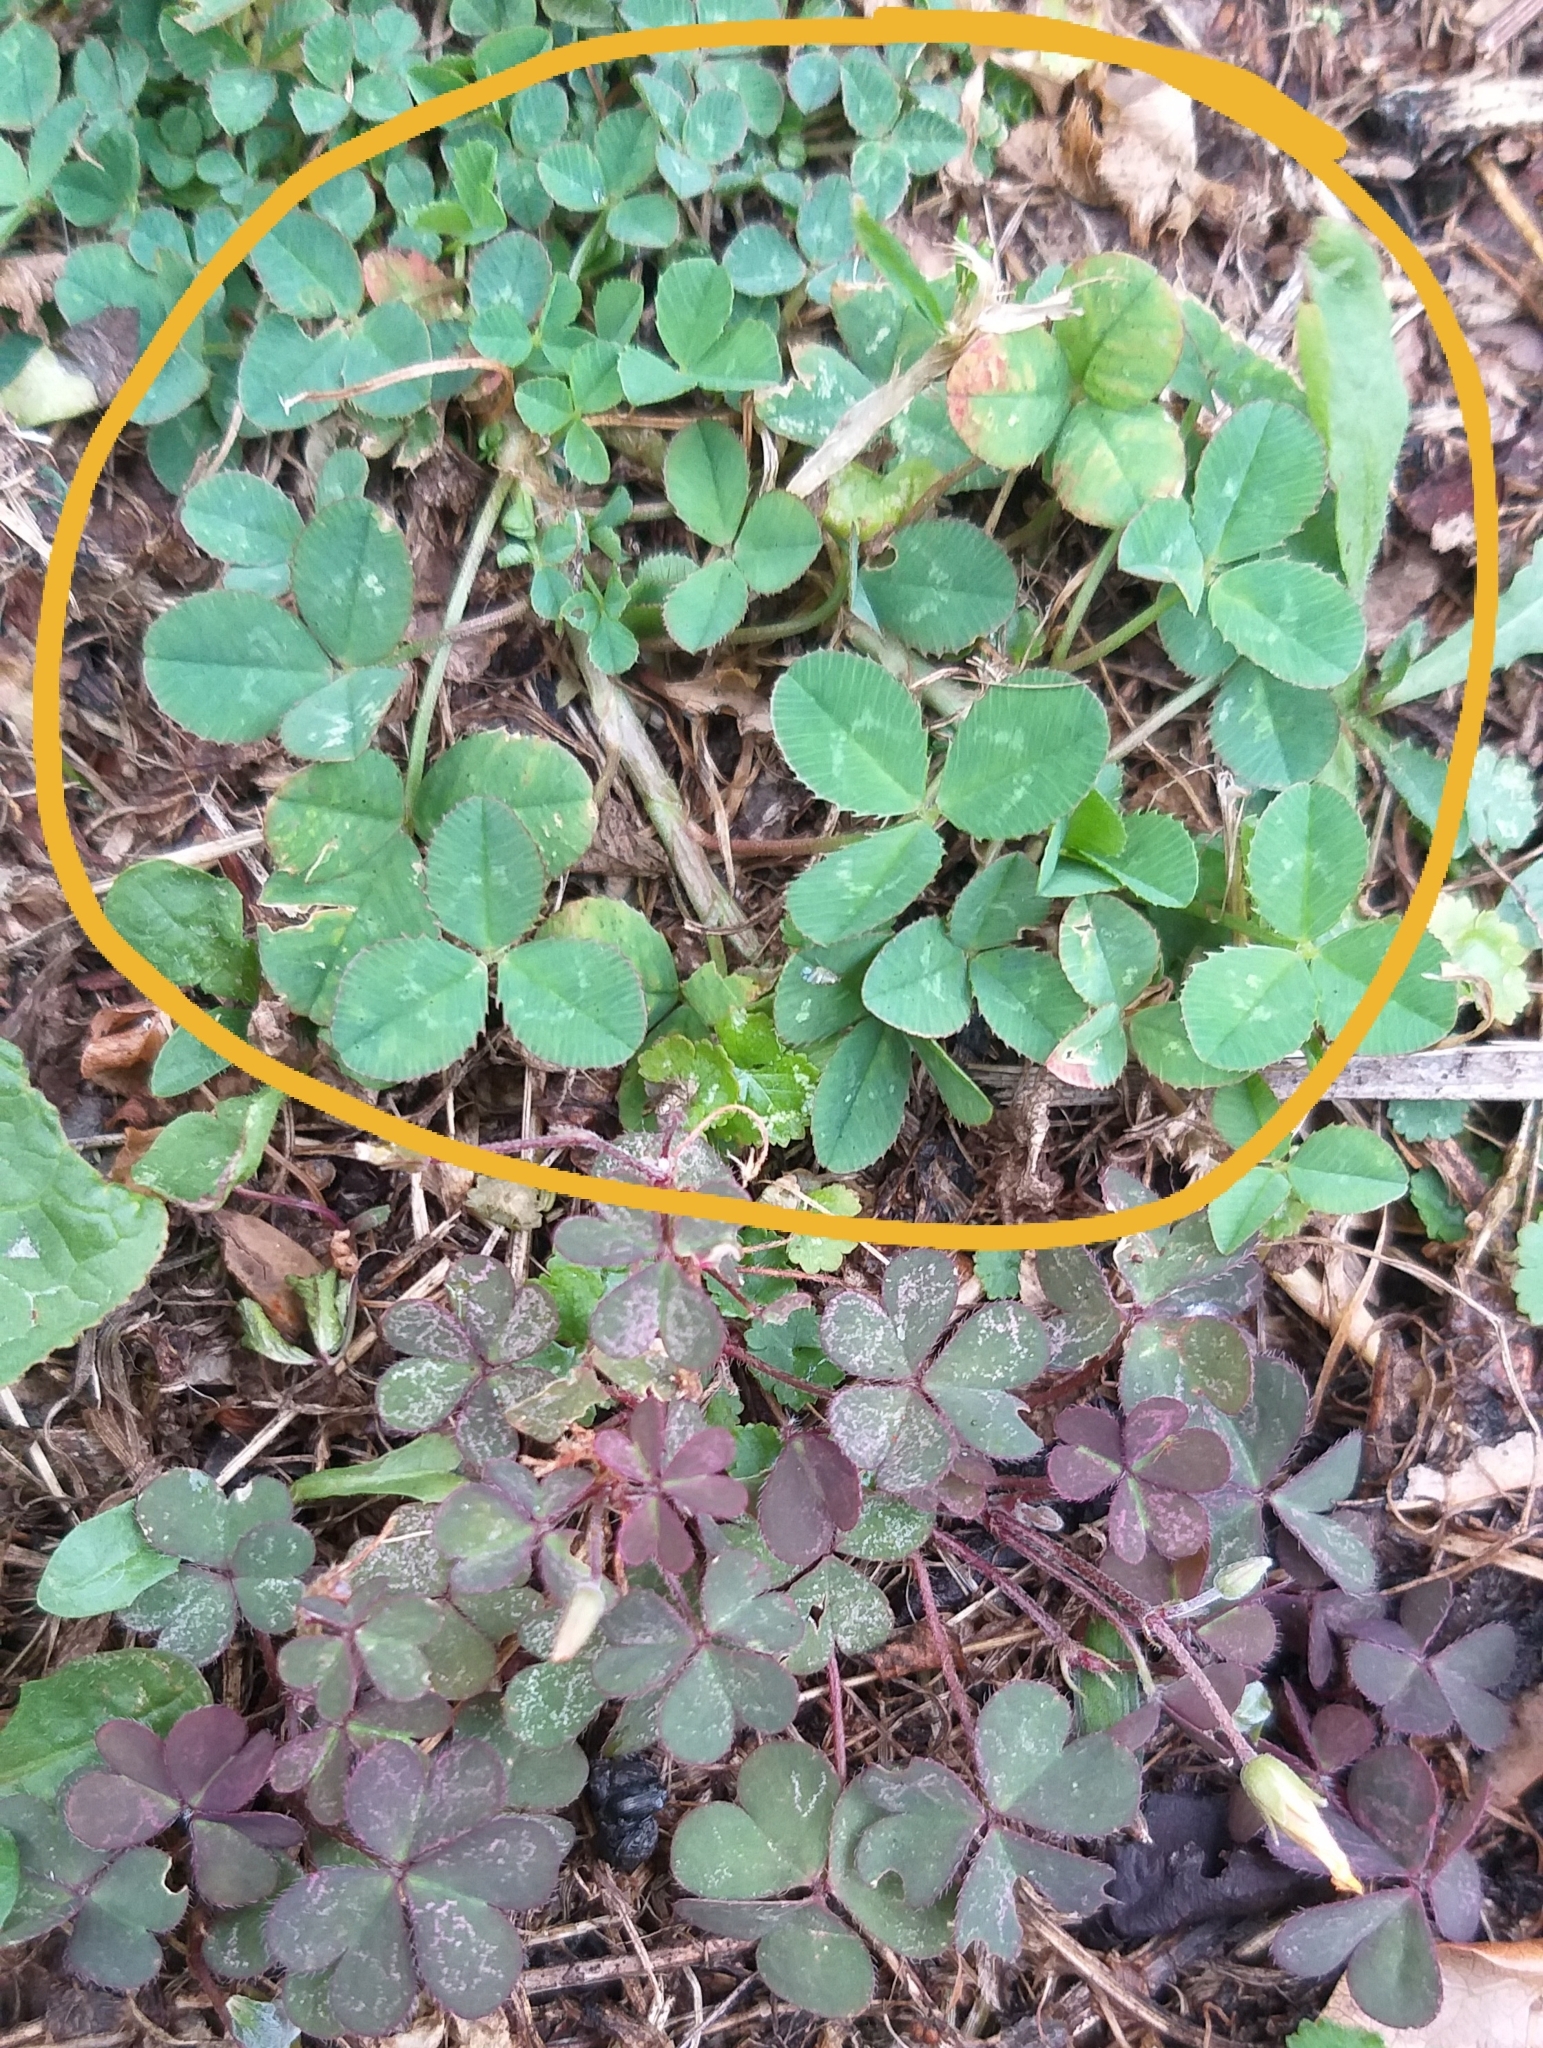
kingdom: Plantae
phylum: Tracheophyta
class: Magnoliopsida
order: Fabales
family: Fabaceae
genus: Trifolium
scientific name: Trifolium repens
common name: White clover
